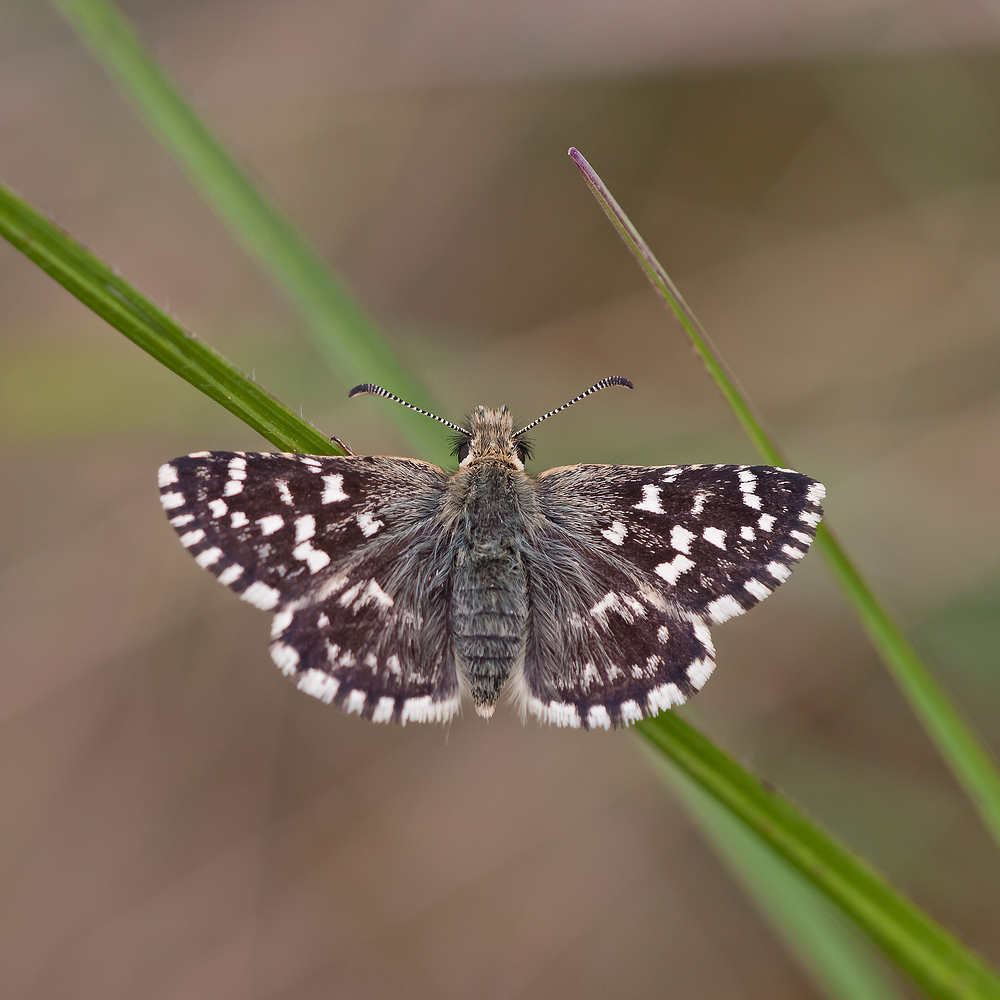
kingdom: Animalia
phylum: Arthropoda
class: Insecta
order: Lepidoptera
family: Hesperiidae
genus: Pyrgus
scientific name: Pyrgus malvoides
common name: Southern grizzled skipper
